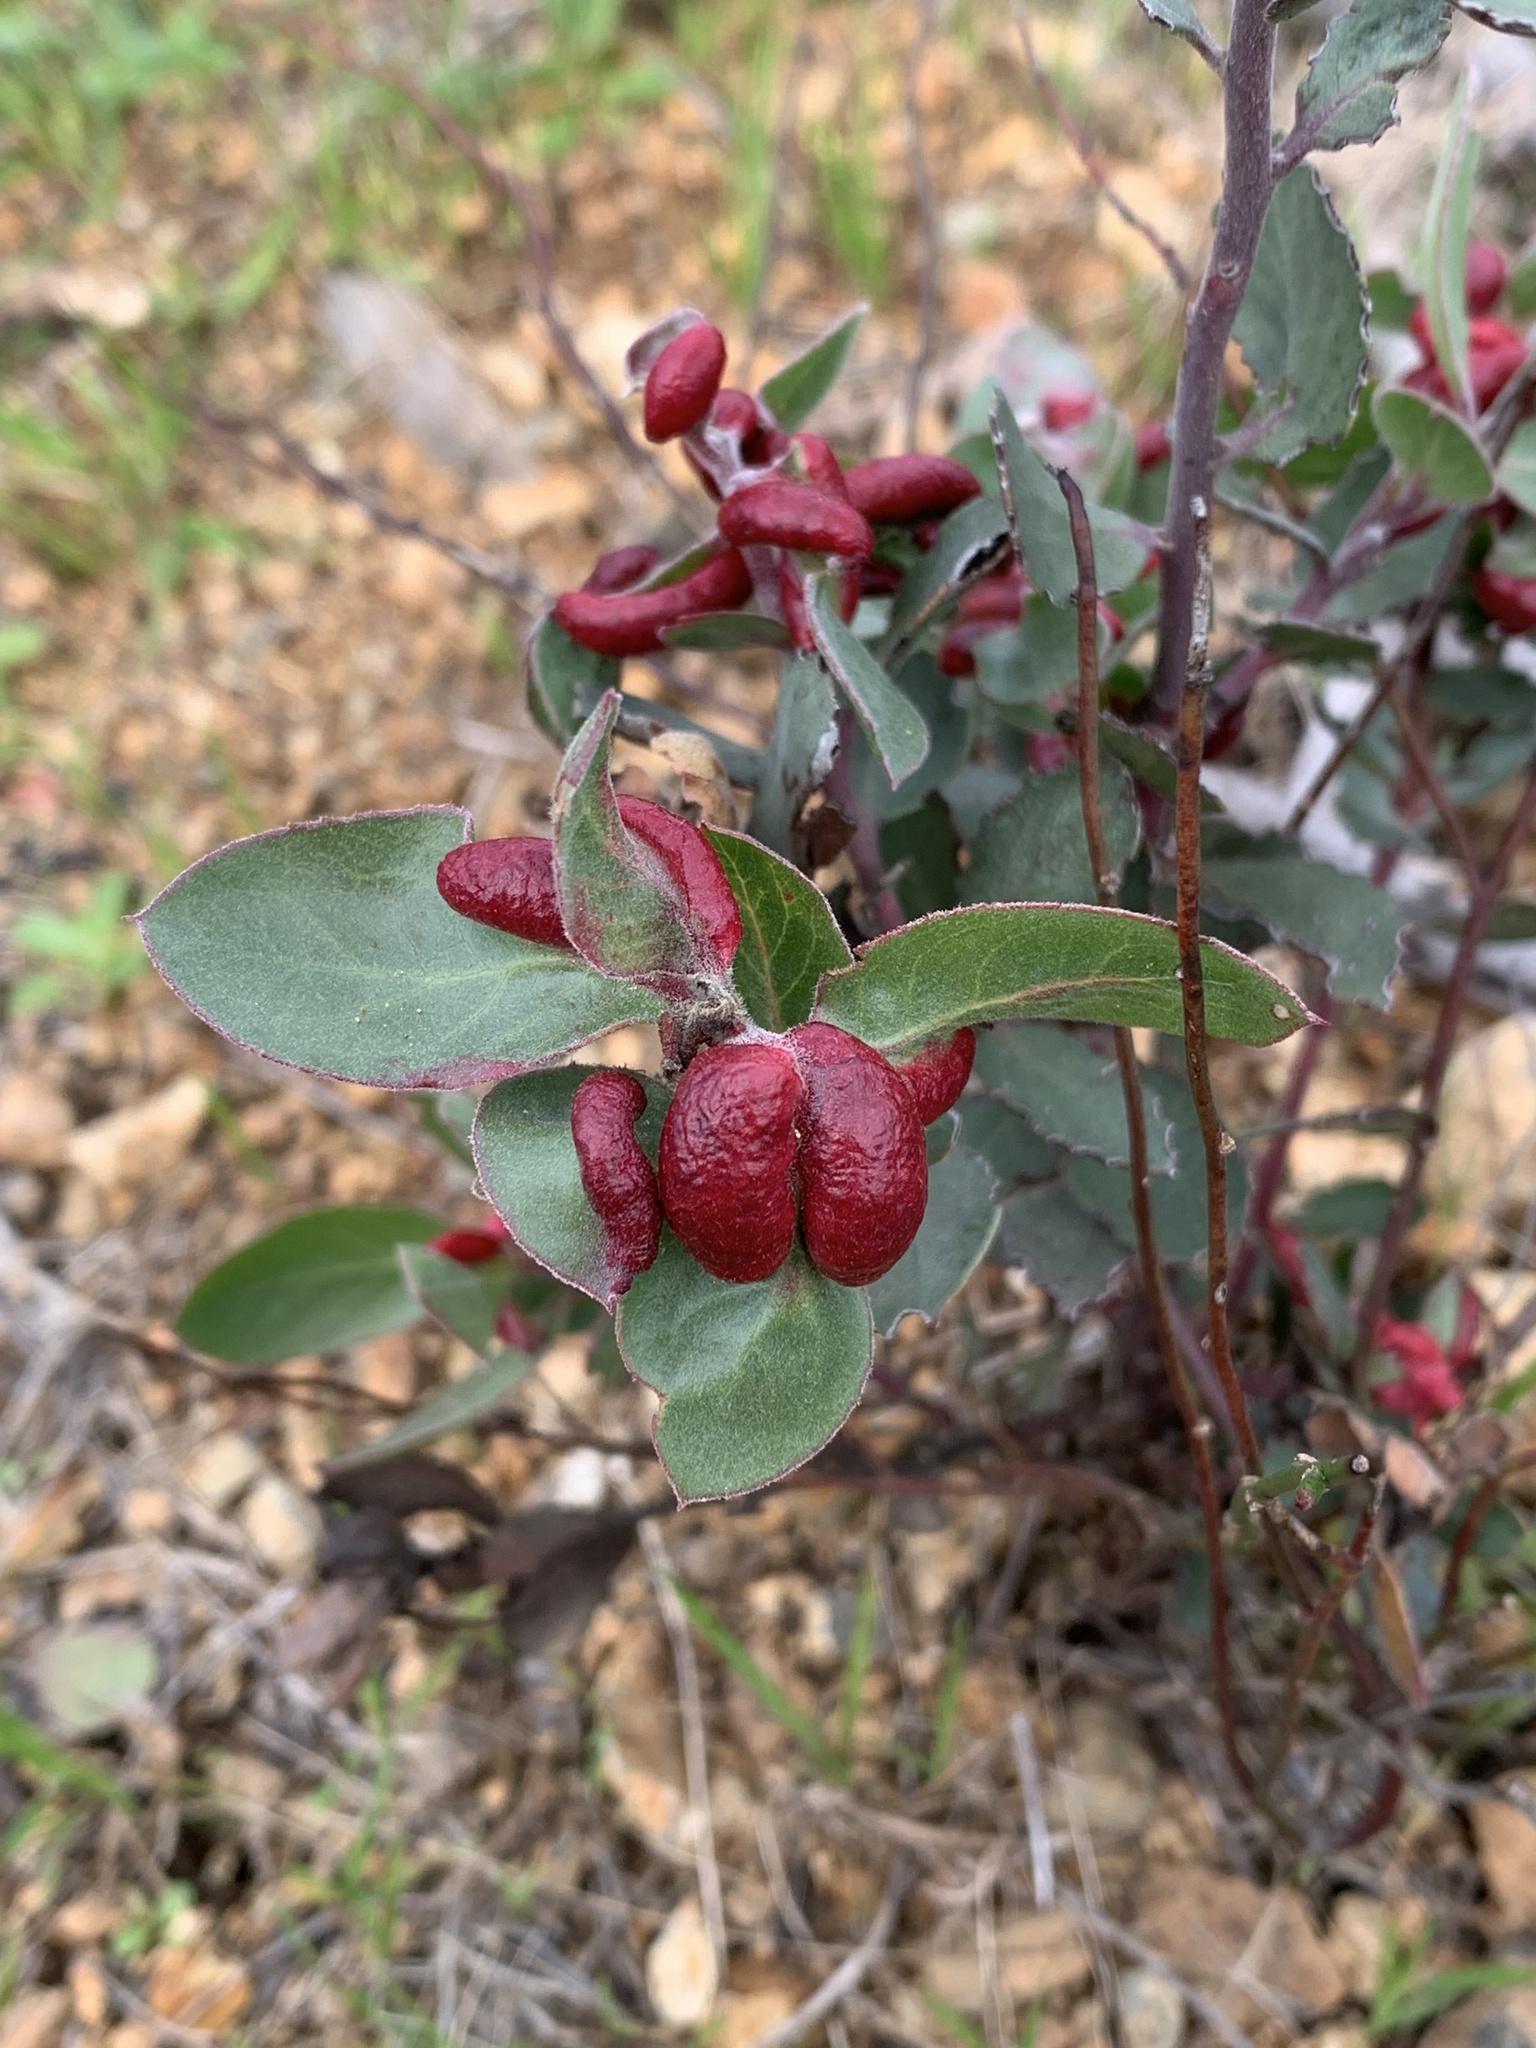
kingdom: Animalia
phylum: Arthropoda
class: Insecta
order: Hemiptera
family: Aphididae
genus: Tamalia
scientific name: Tamalia coweni
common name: Manzanita leafgall aphid
